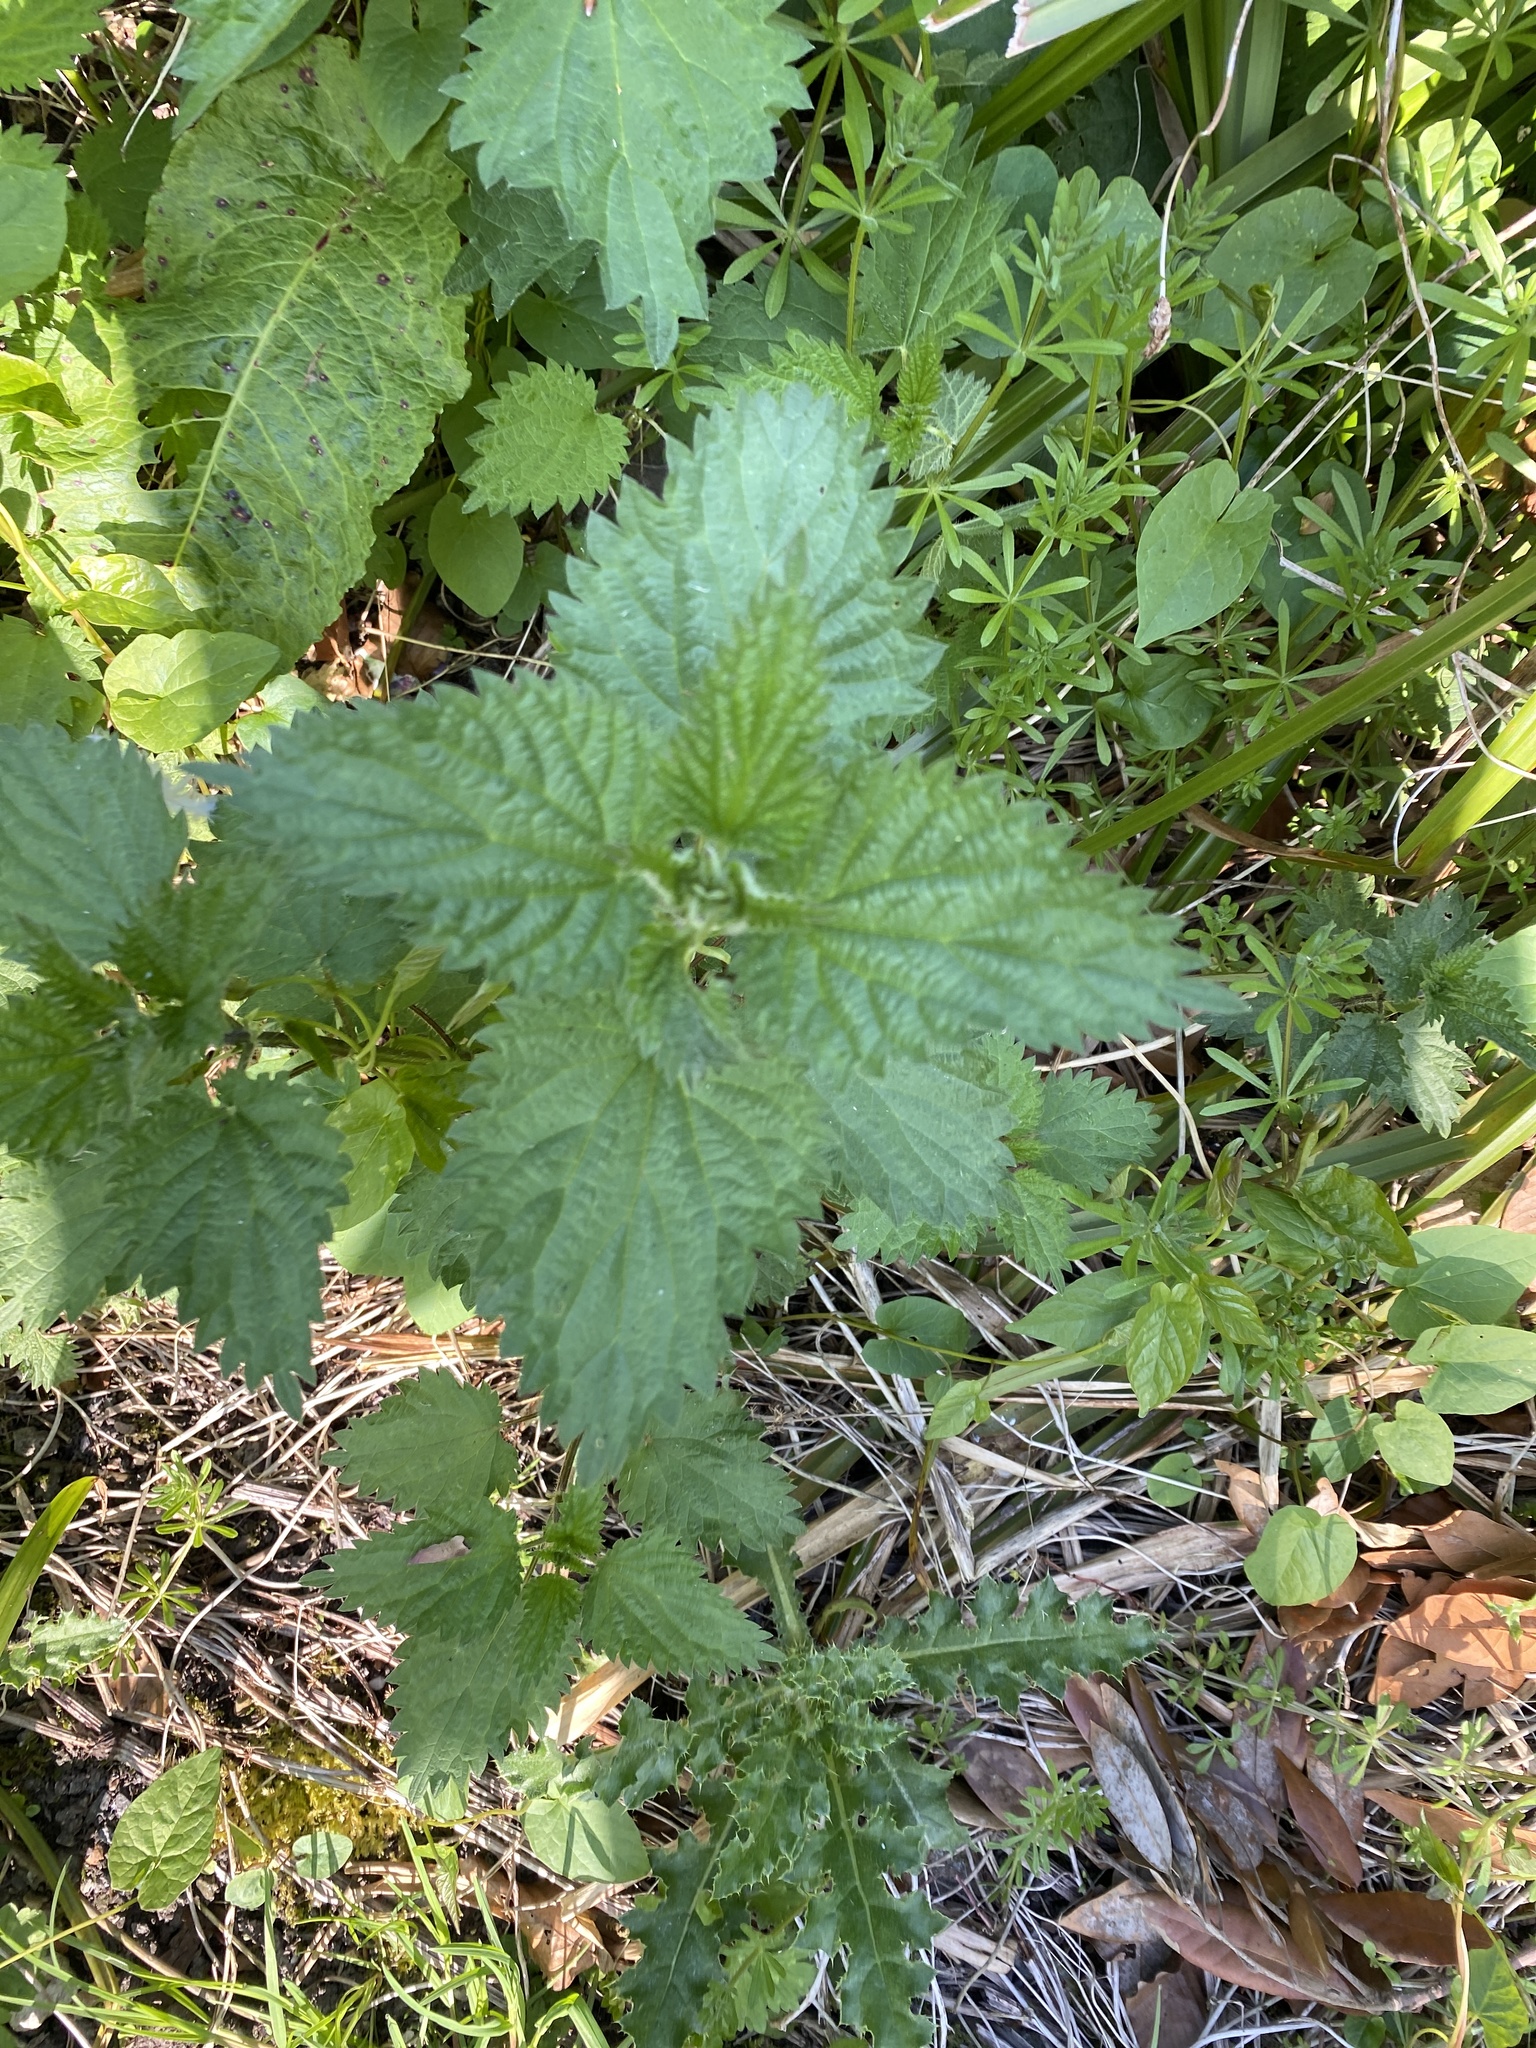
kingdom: Plantae
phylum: Tracheophyta
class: Magnoliopsida
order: Rosales
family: Urticaceae
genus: Urtica
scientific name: Urtica dioica
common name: Common nettle
